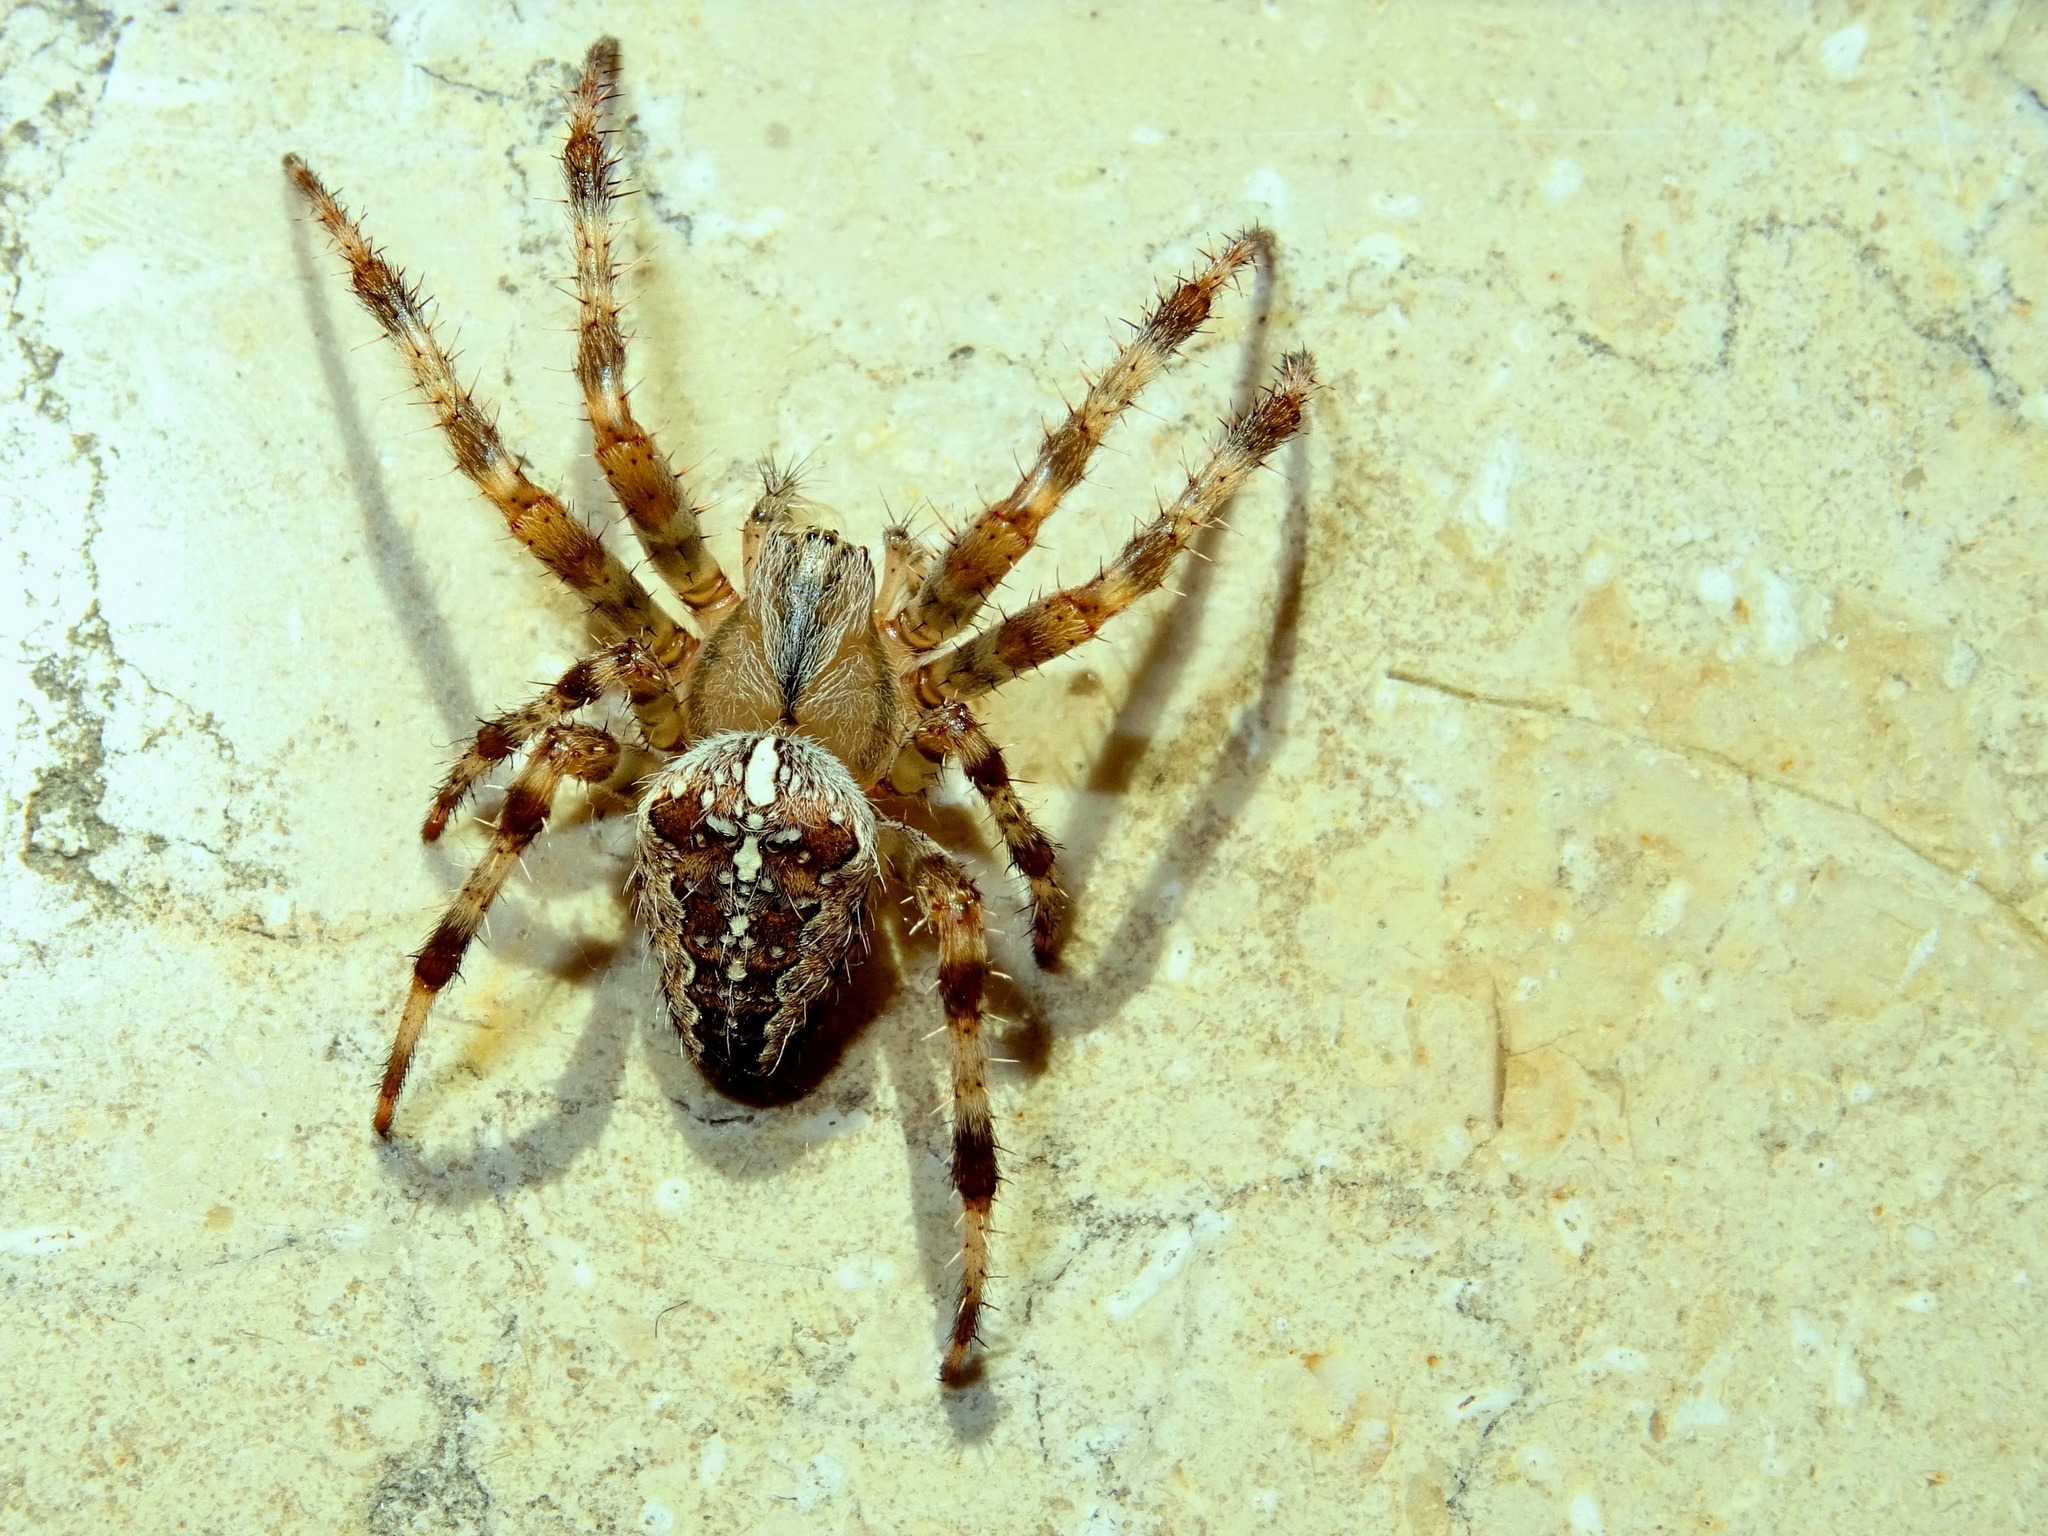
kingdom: Animalia
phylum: Arthropoda
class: Arachnida
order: Araneae
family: Araneidae
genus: Araneus
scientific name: Araneus diadematus
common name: Cross orbweaver
